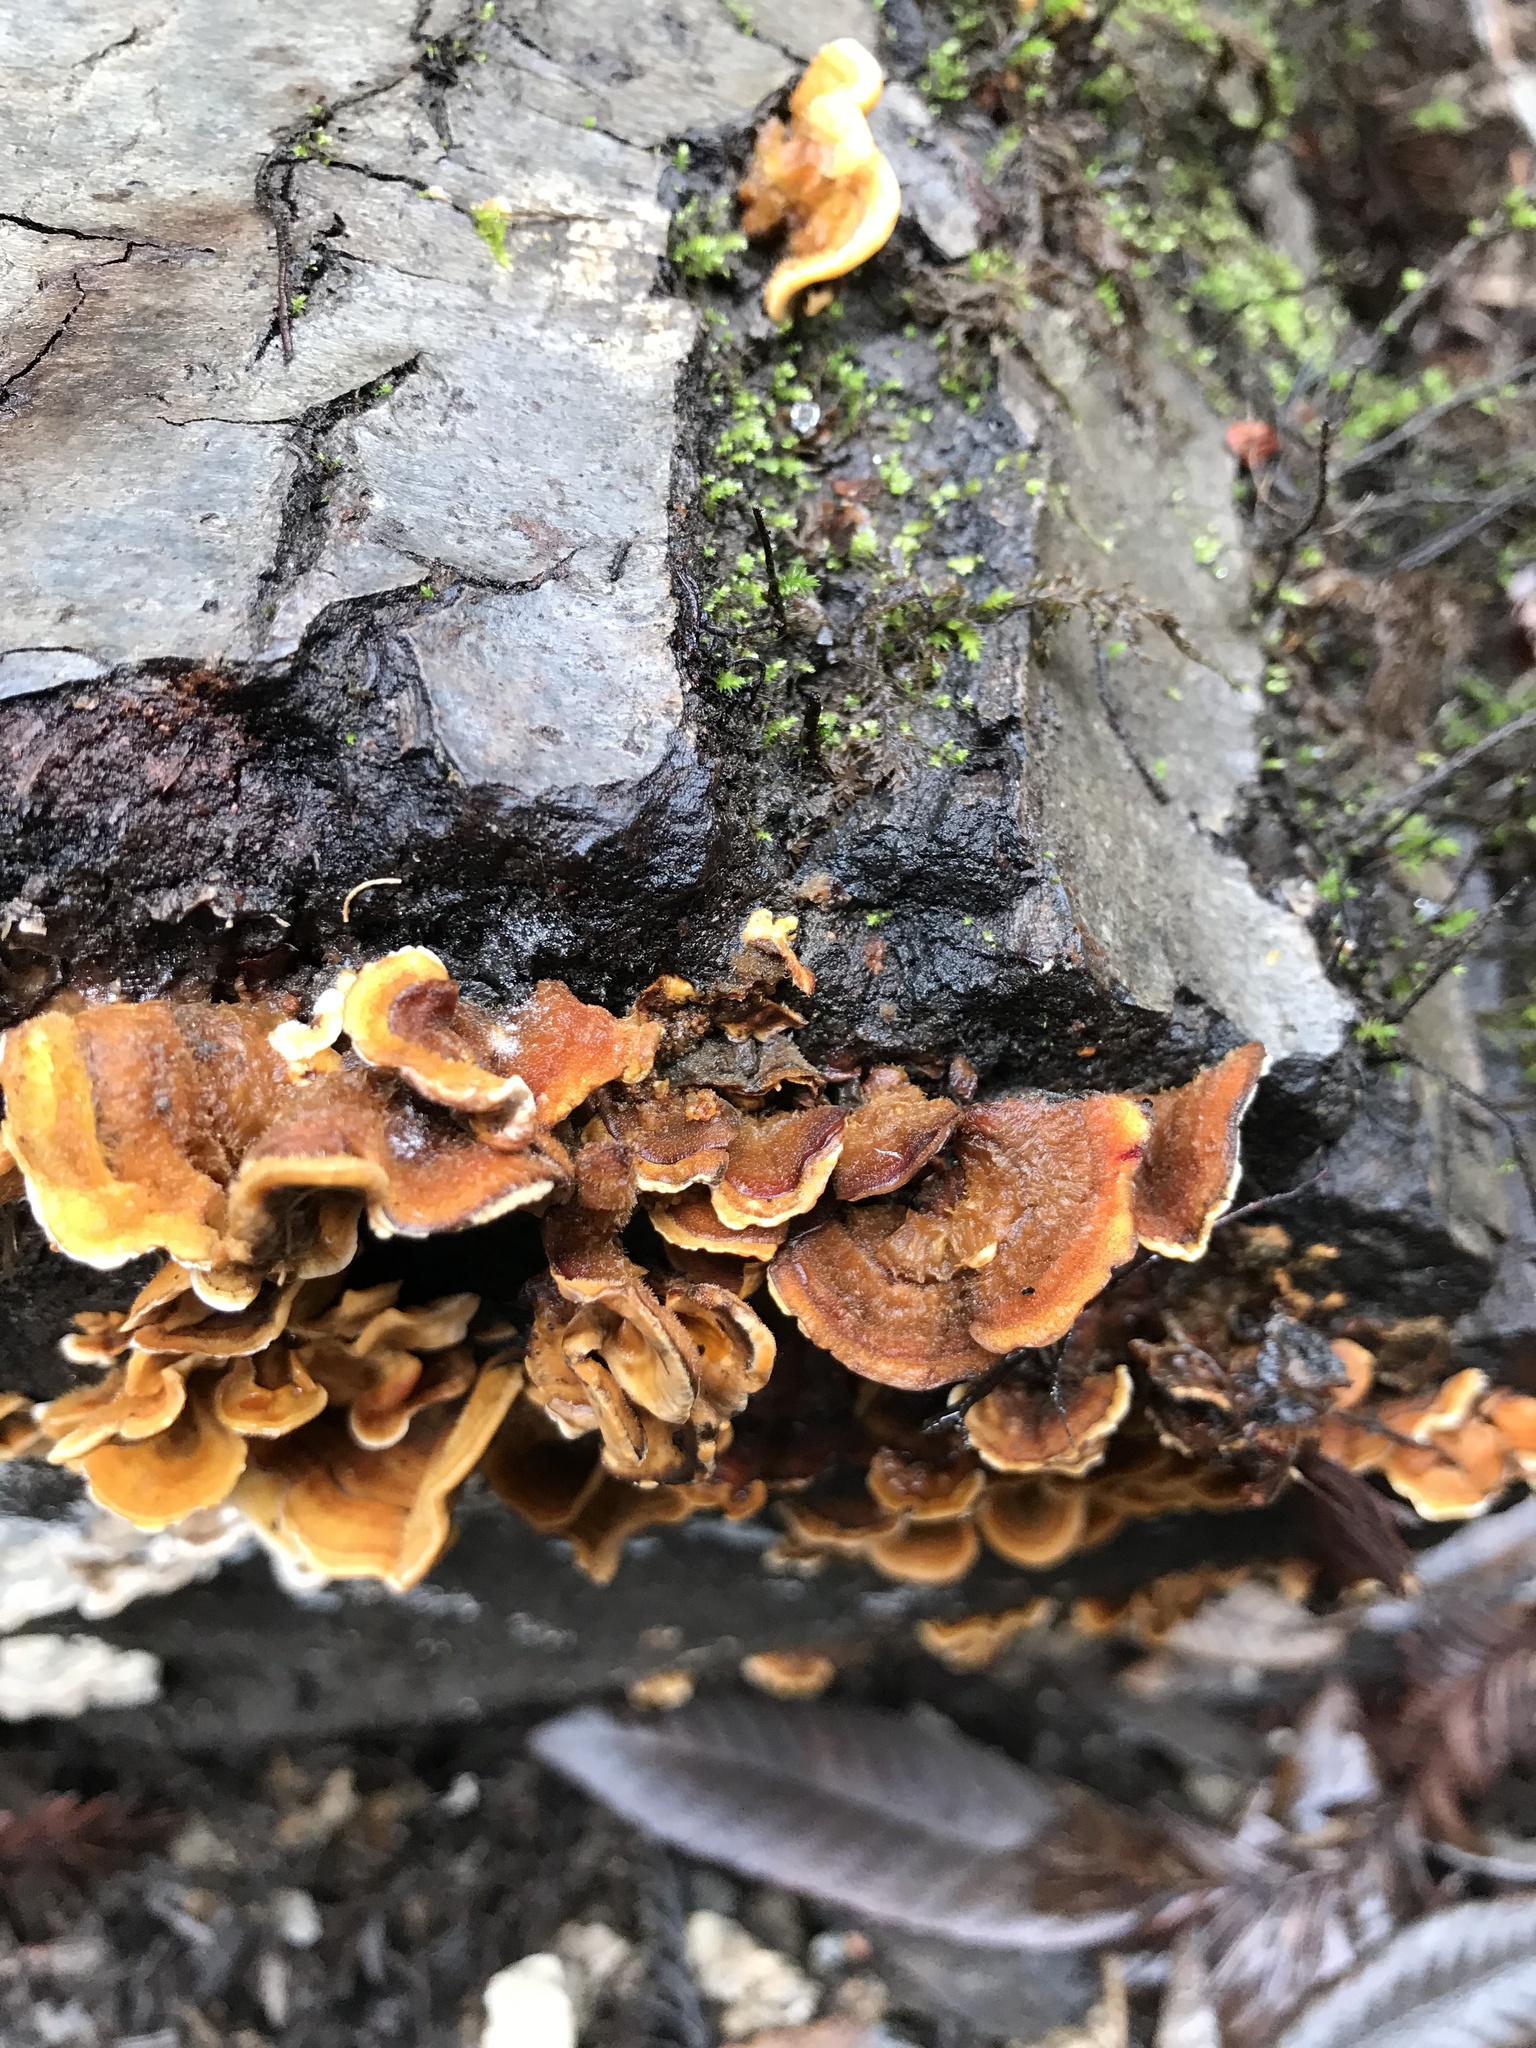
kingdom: Fungi
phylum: Basidiomycota
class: Agaricomycetes
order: Russulales
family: Stereaceae
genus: Stereum
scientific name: Stereum hirsutum
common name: Hairy curtain crust
